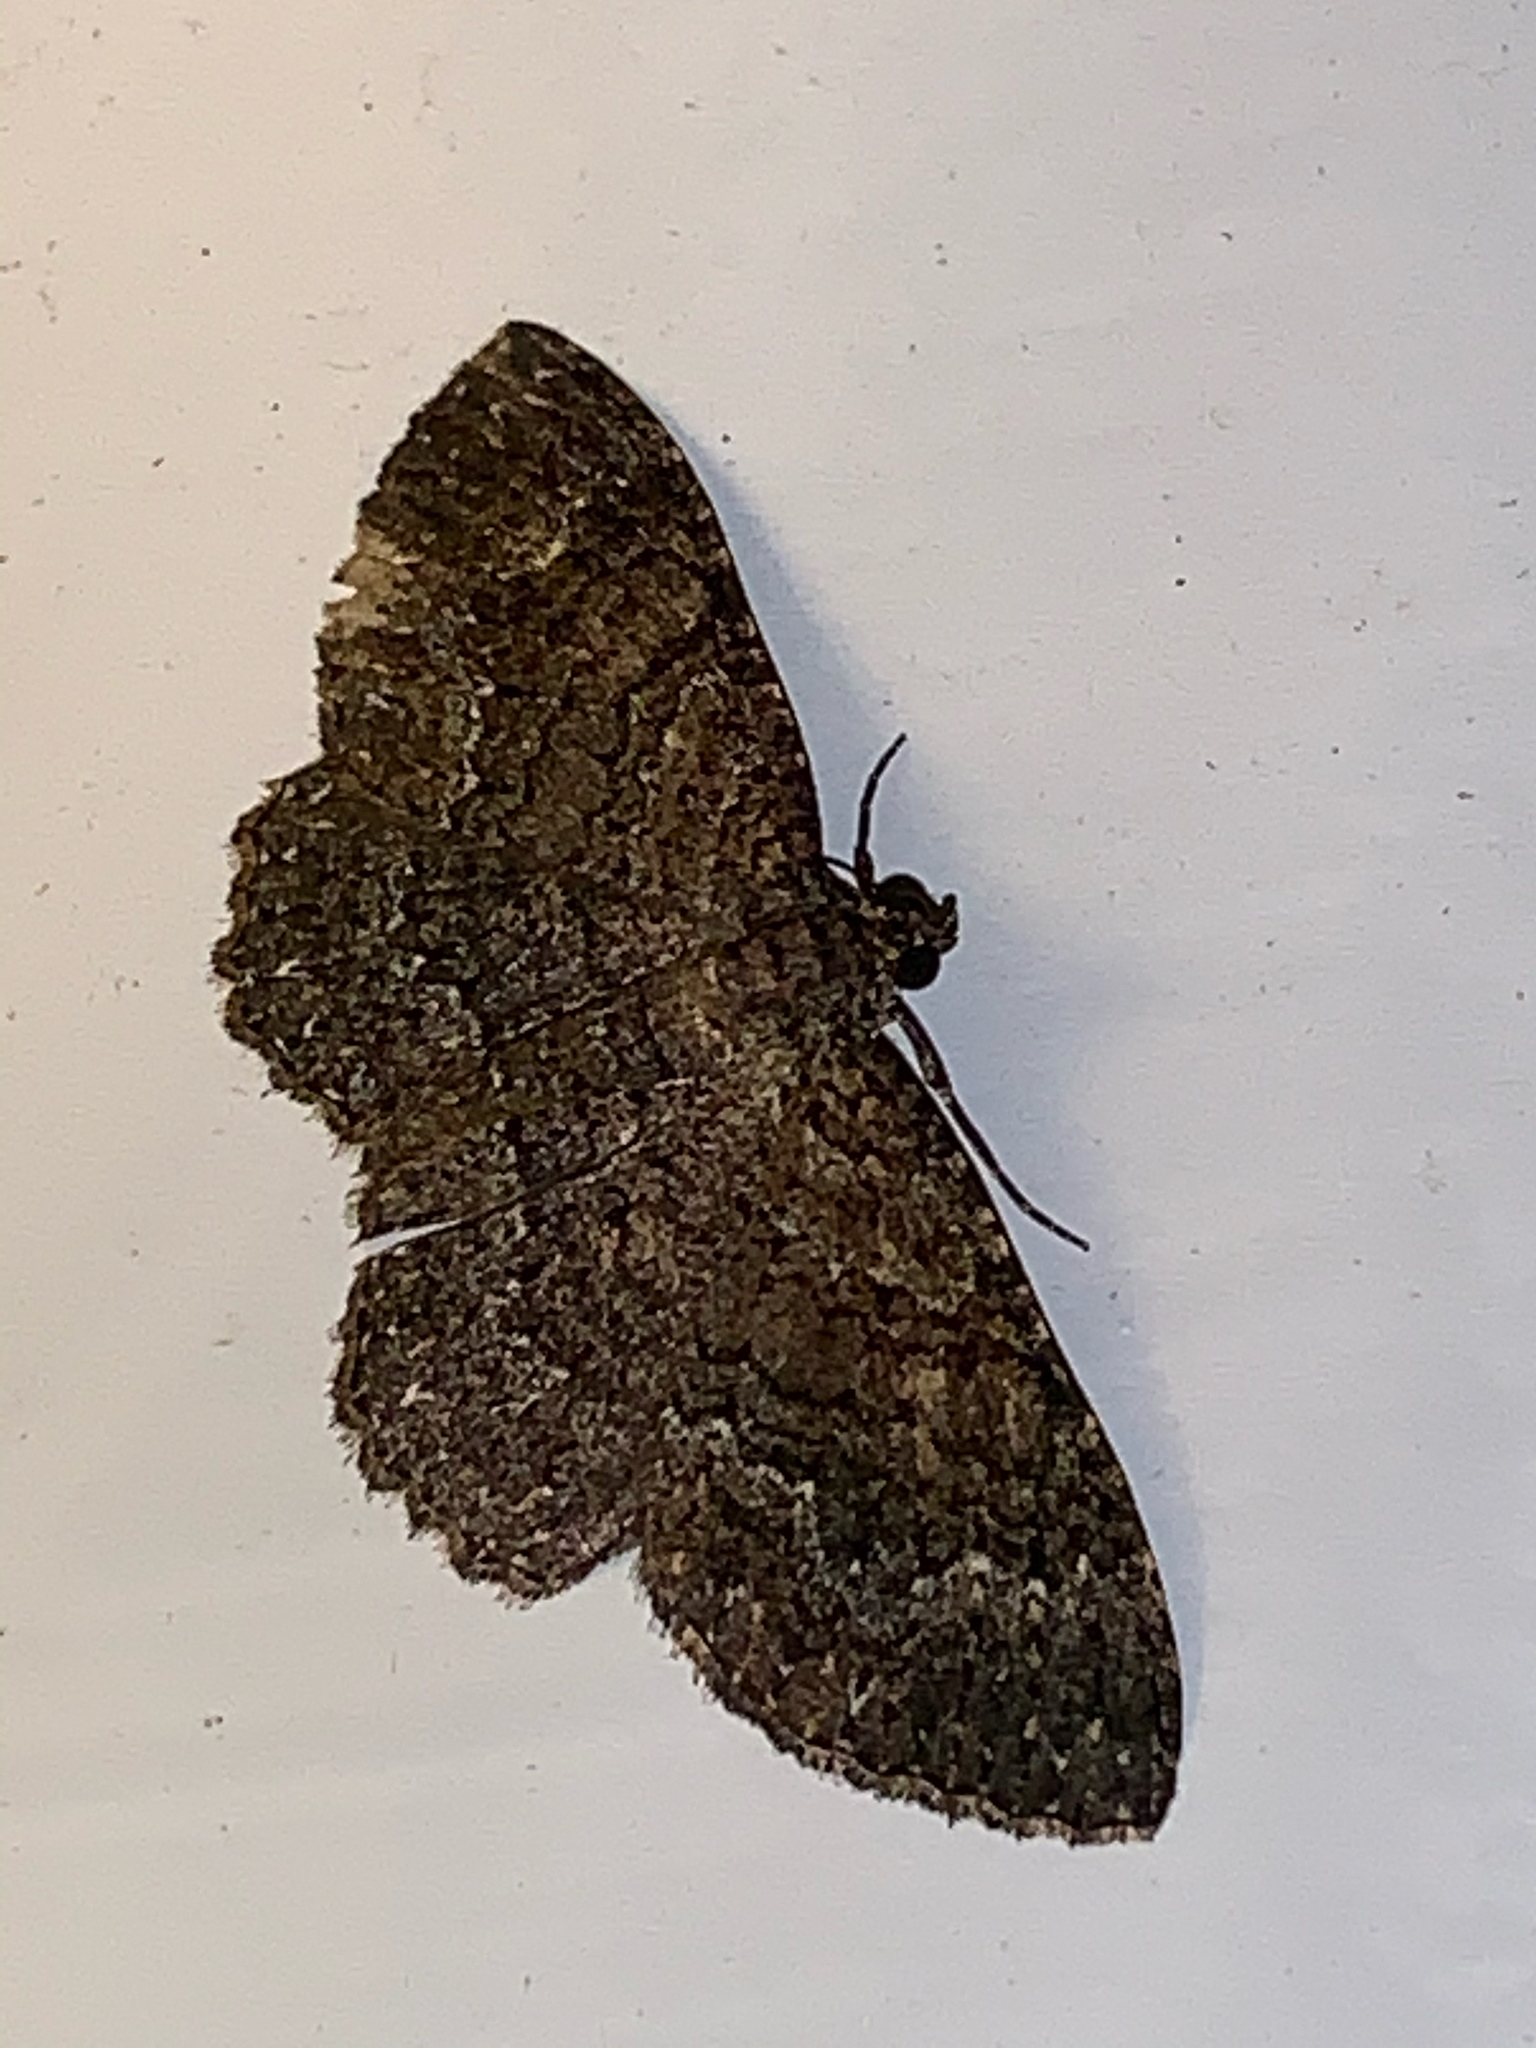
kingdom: Animalia
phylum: Arthropoda
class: Insecta
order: Lepidoptera
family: Geometridae
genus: Disclisioprocta
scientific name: Disclisioprocta stellata
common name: Somber carpet
